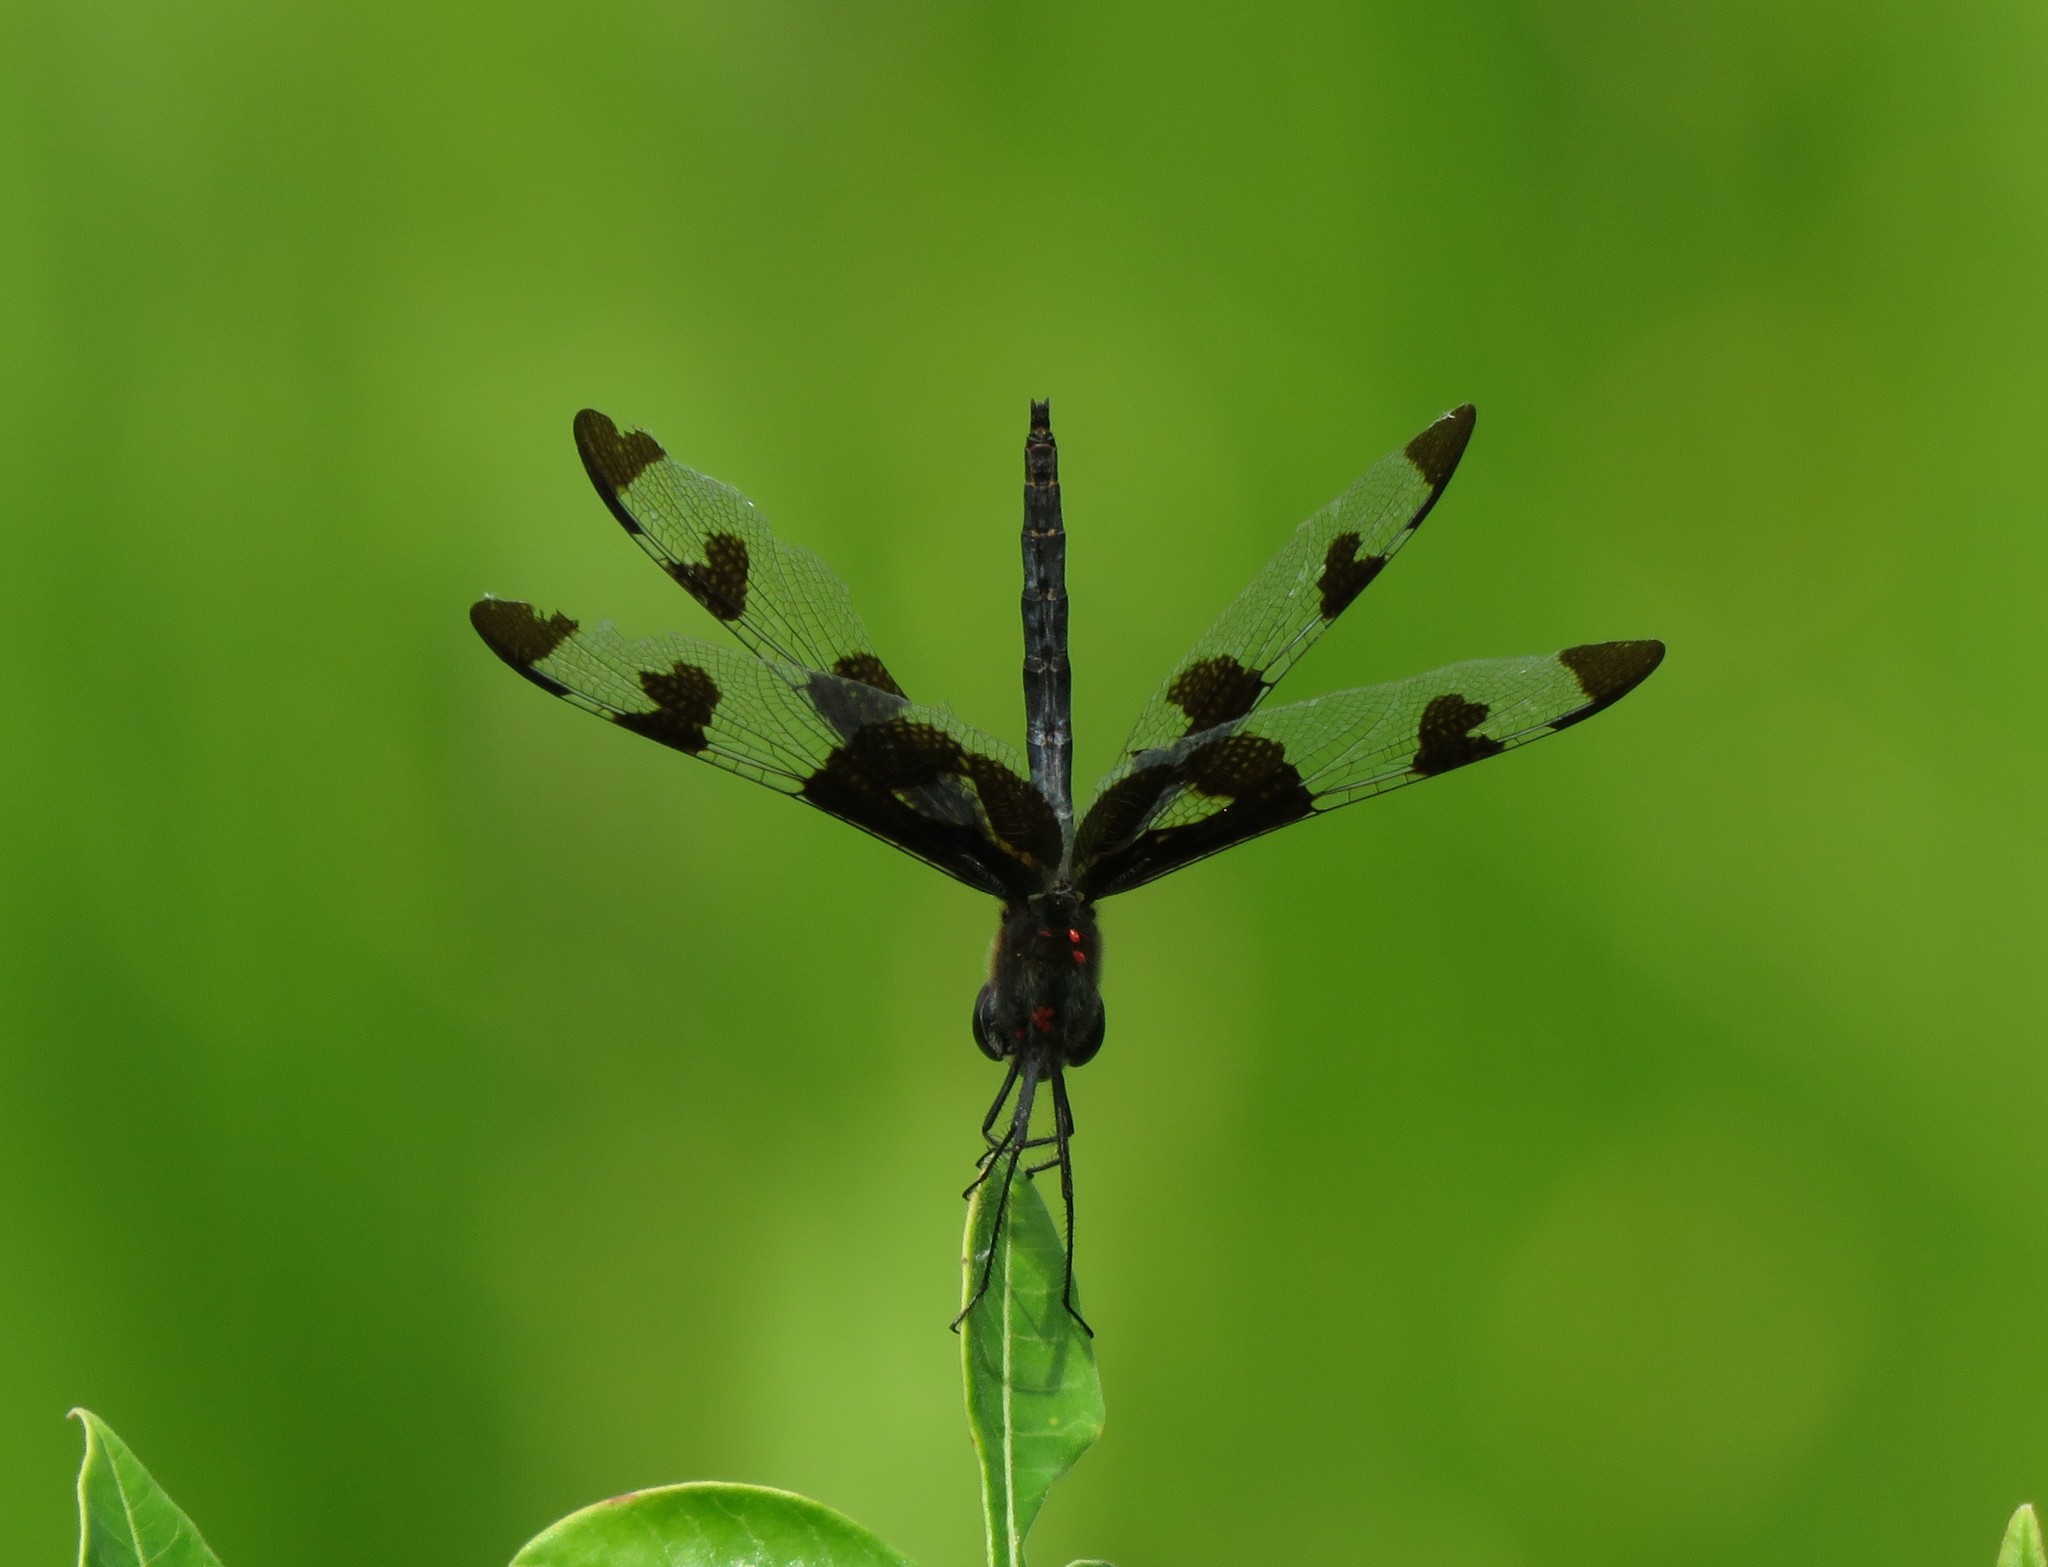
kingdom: Animalia
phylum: Arthropoda
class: Insecta
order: Odonata
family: Libellulidae
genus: Celithemis
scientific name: Celithemis fasciata
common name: Banded pennant
